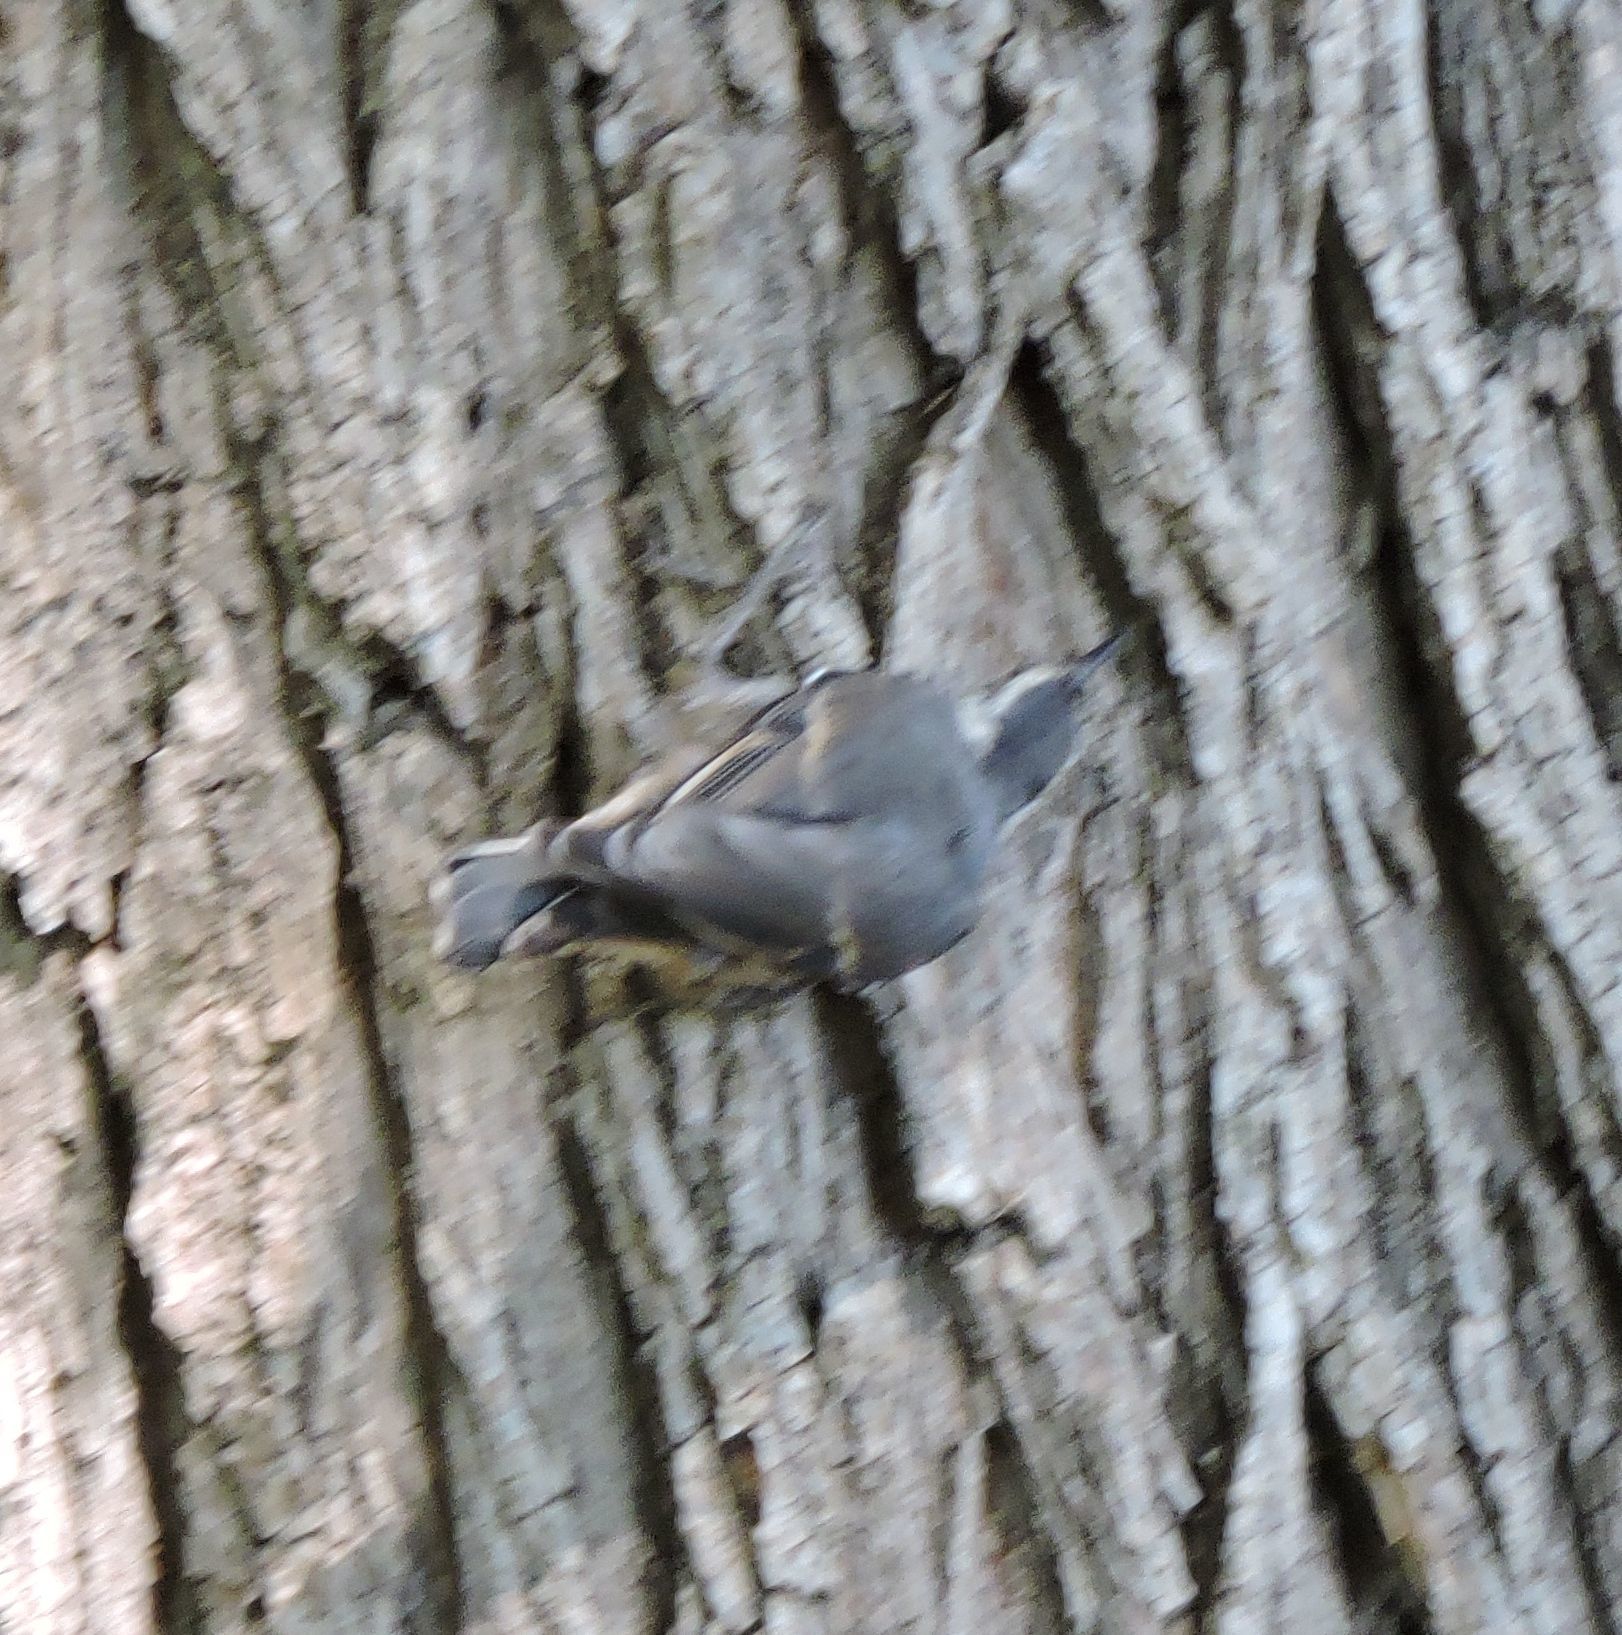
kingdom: Animalia
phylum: Chordata
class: Aves
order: Passeriformes
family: Sittidae
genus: Sitta
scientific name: Sitta carolinensis
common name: White-breasted nuthatch
